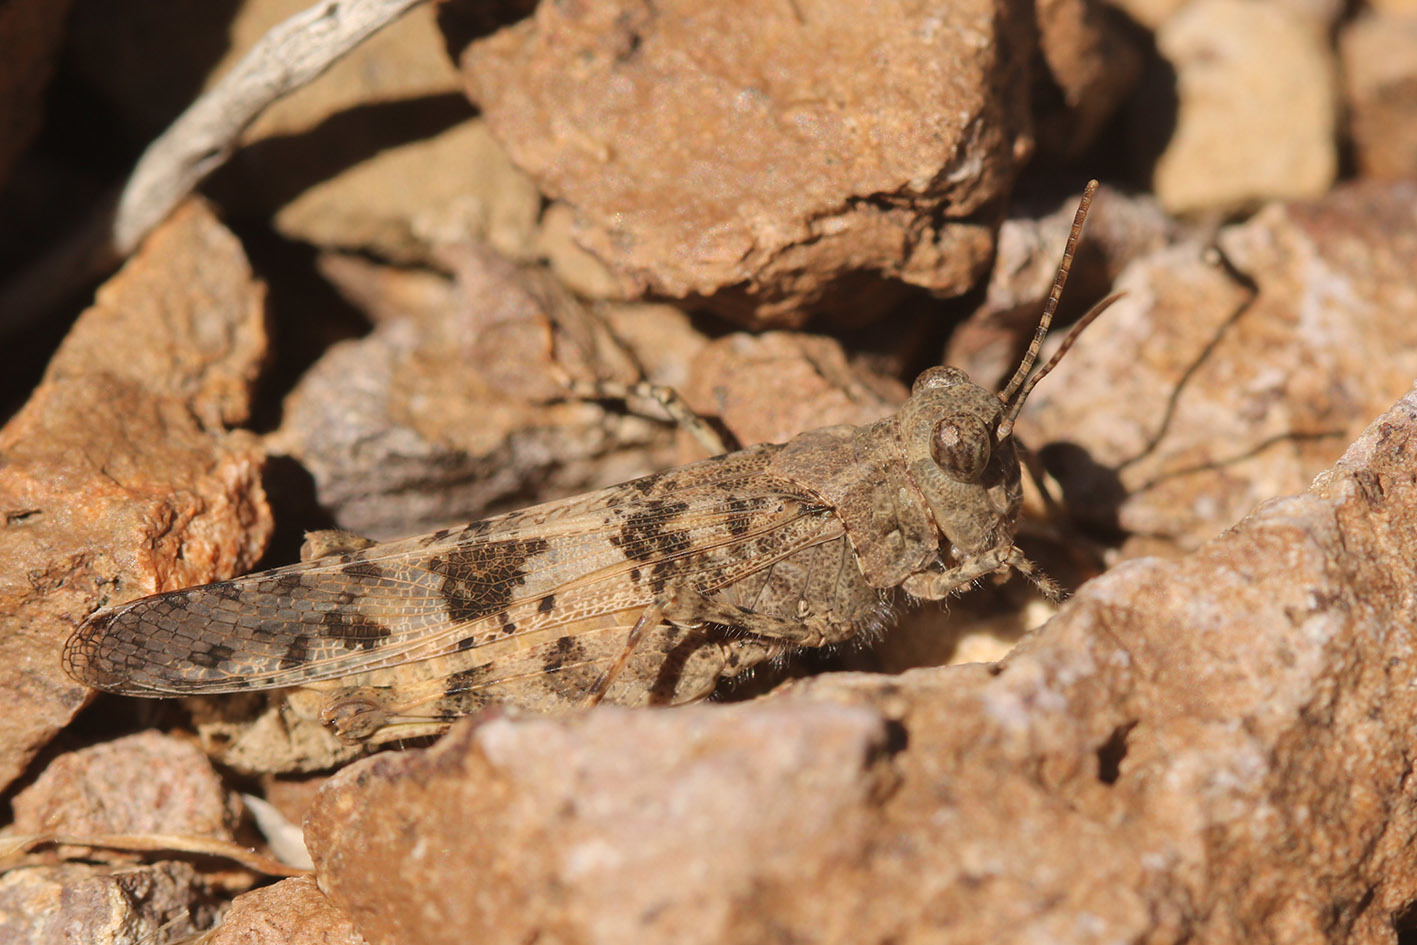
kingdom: Animalia
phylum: Arthropoda
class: Insecta
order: Orthoptera
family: Acrididae
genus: Trimerotropis
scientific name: Trimerotropis pallidipennis
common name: Pallid-winged grasshopper
